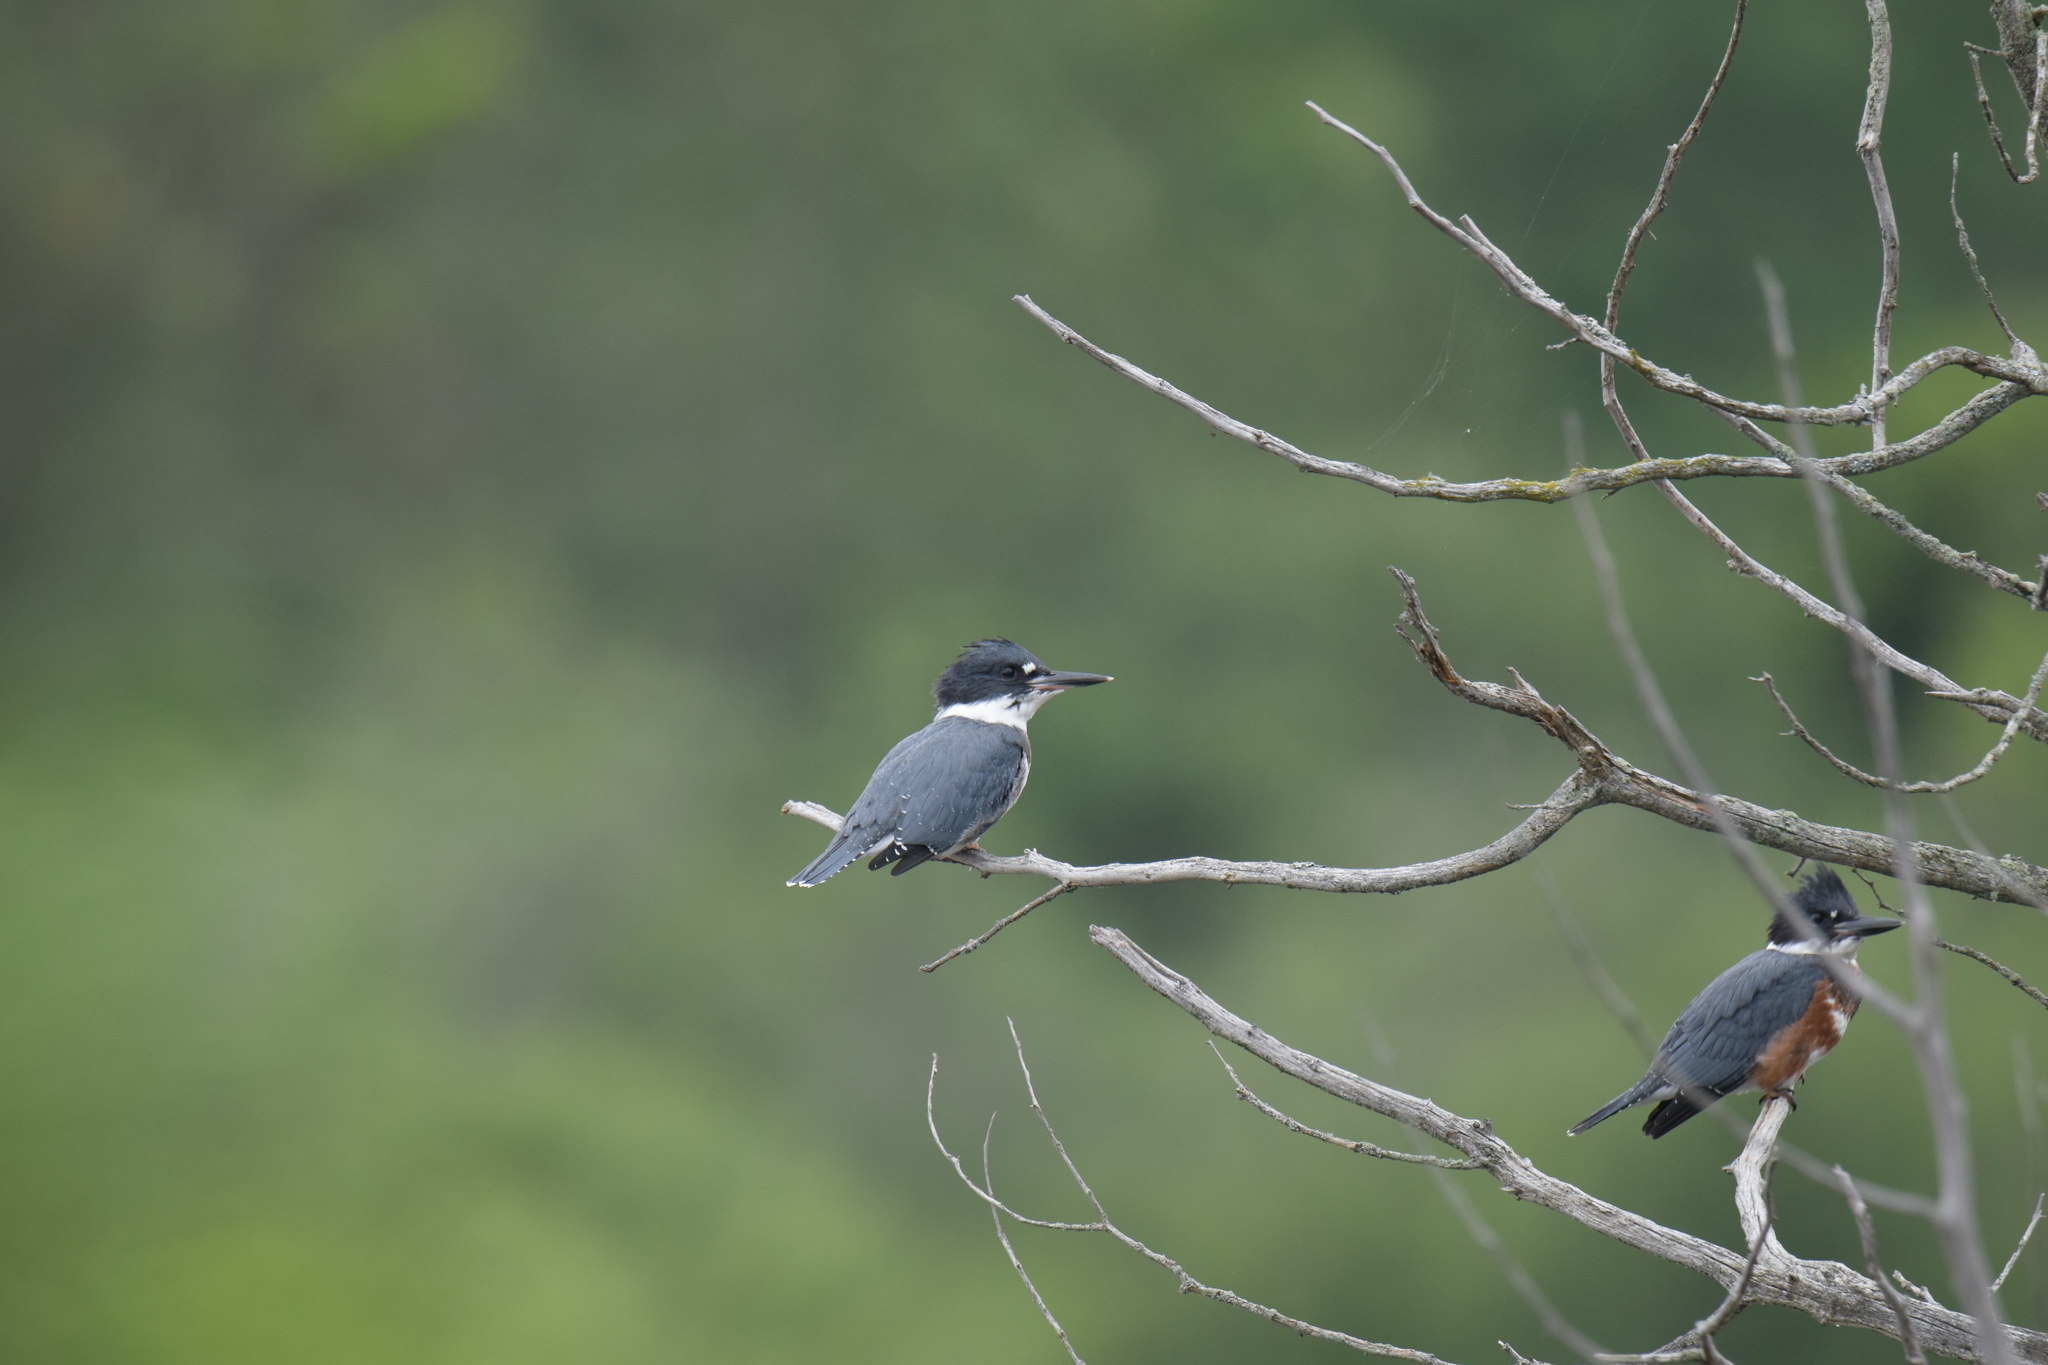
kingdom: Animalia
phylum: Chordata
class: Aves
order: Coraciiformes
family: Alcedinidae
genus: Megaceryle
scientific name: Megaceryle alcyon
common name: Belted kingfisher
